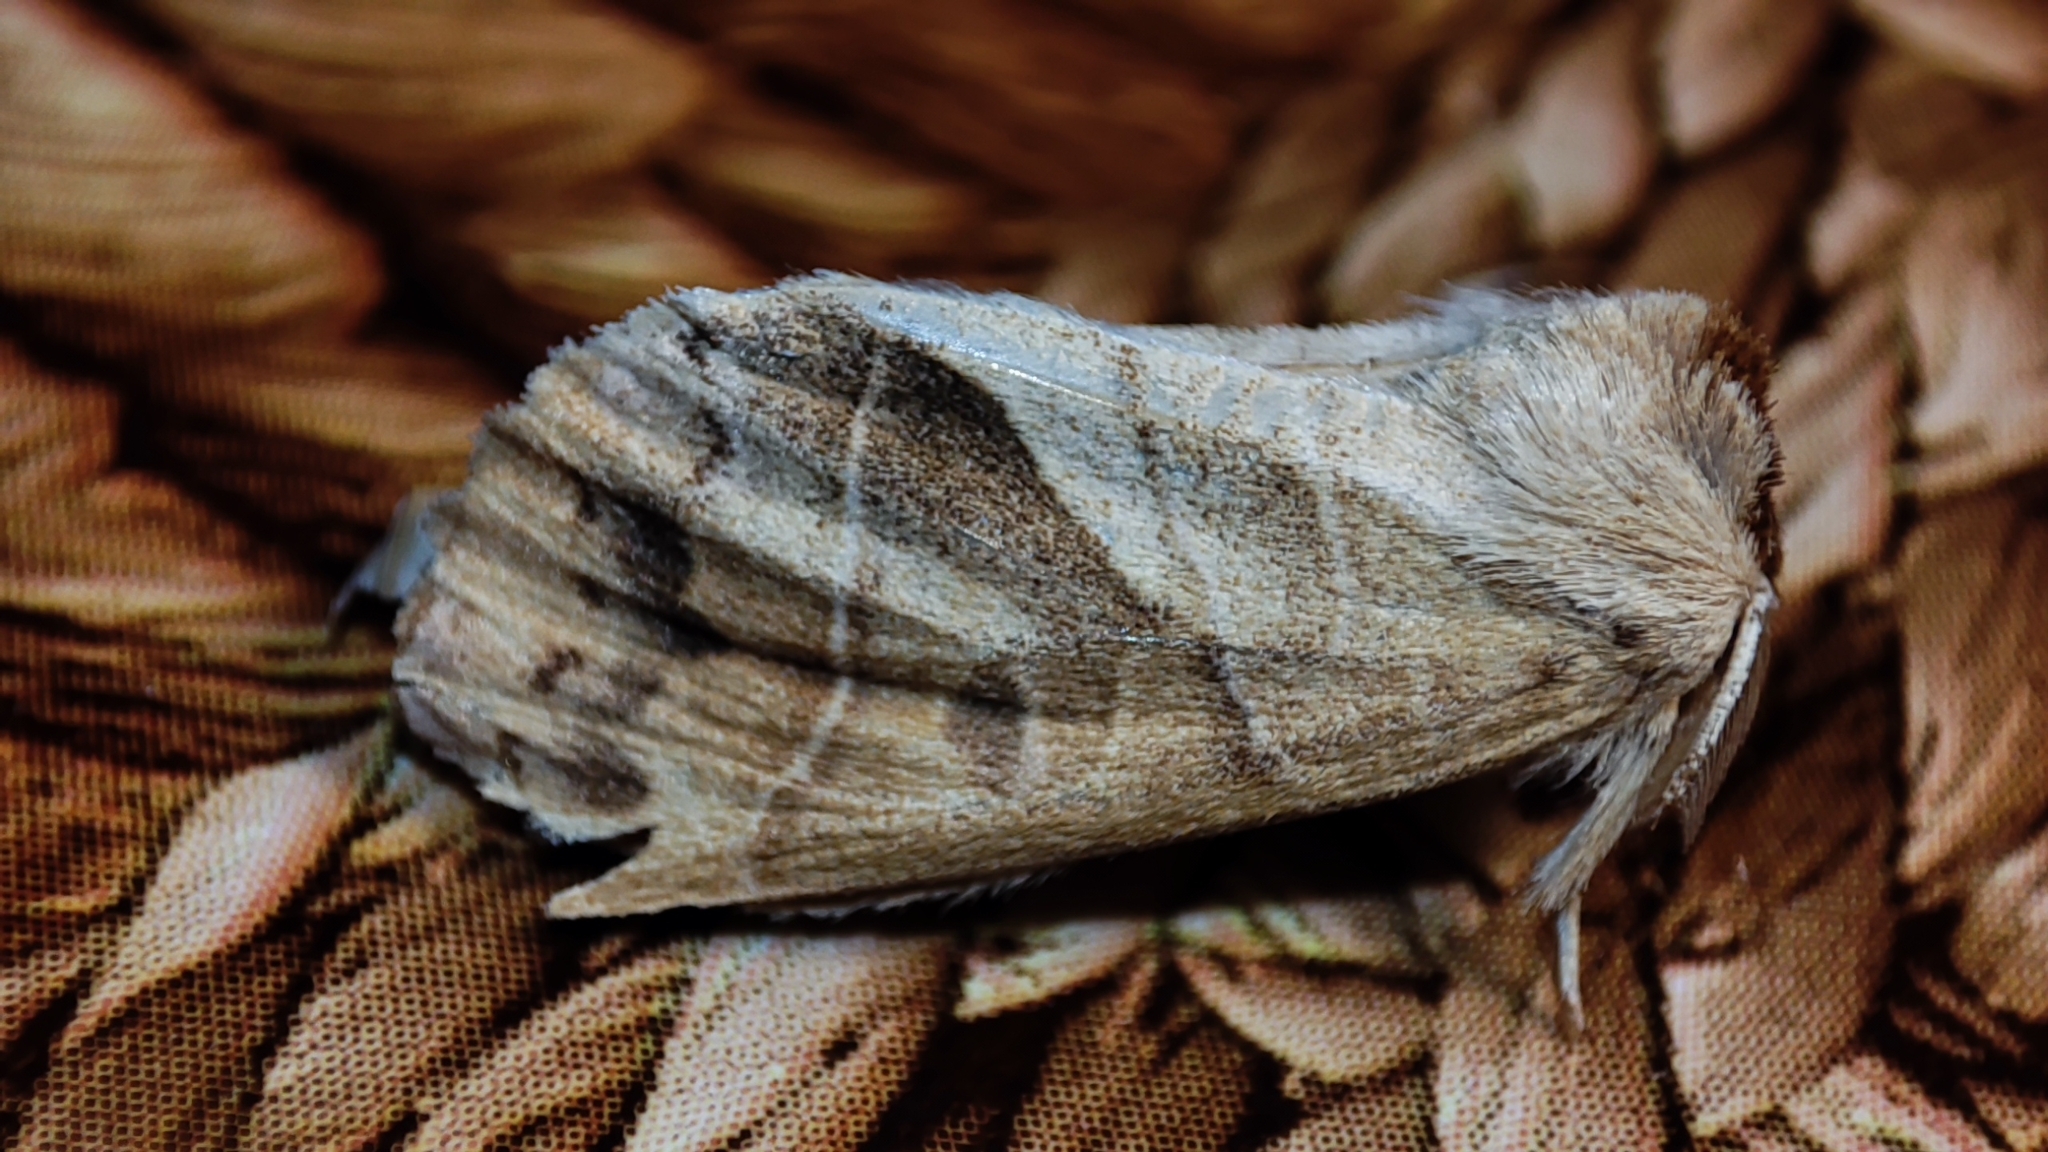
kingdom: Animalia
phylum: Arthropoda
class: Insecta
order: Lepidoptera
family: Notodontidae
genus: Clostera
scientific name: Clostera anastomosis
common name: Poplar tip moth
